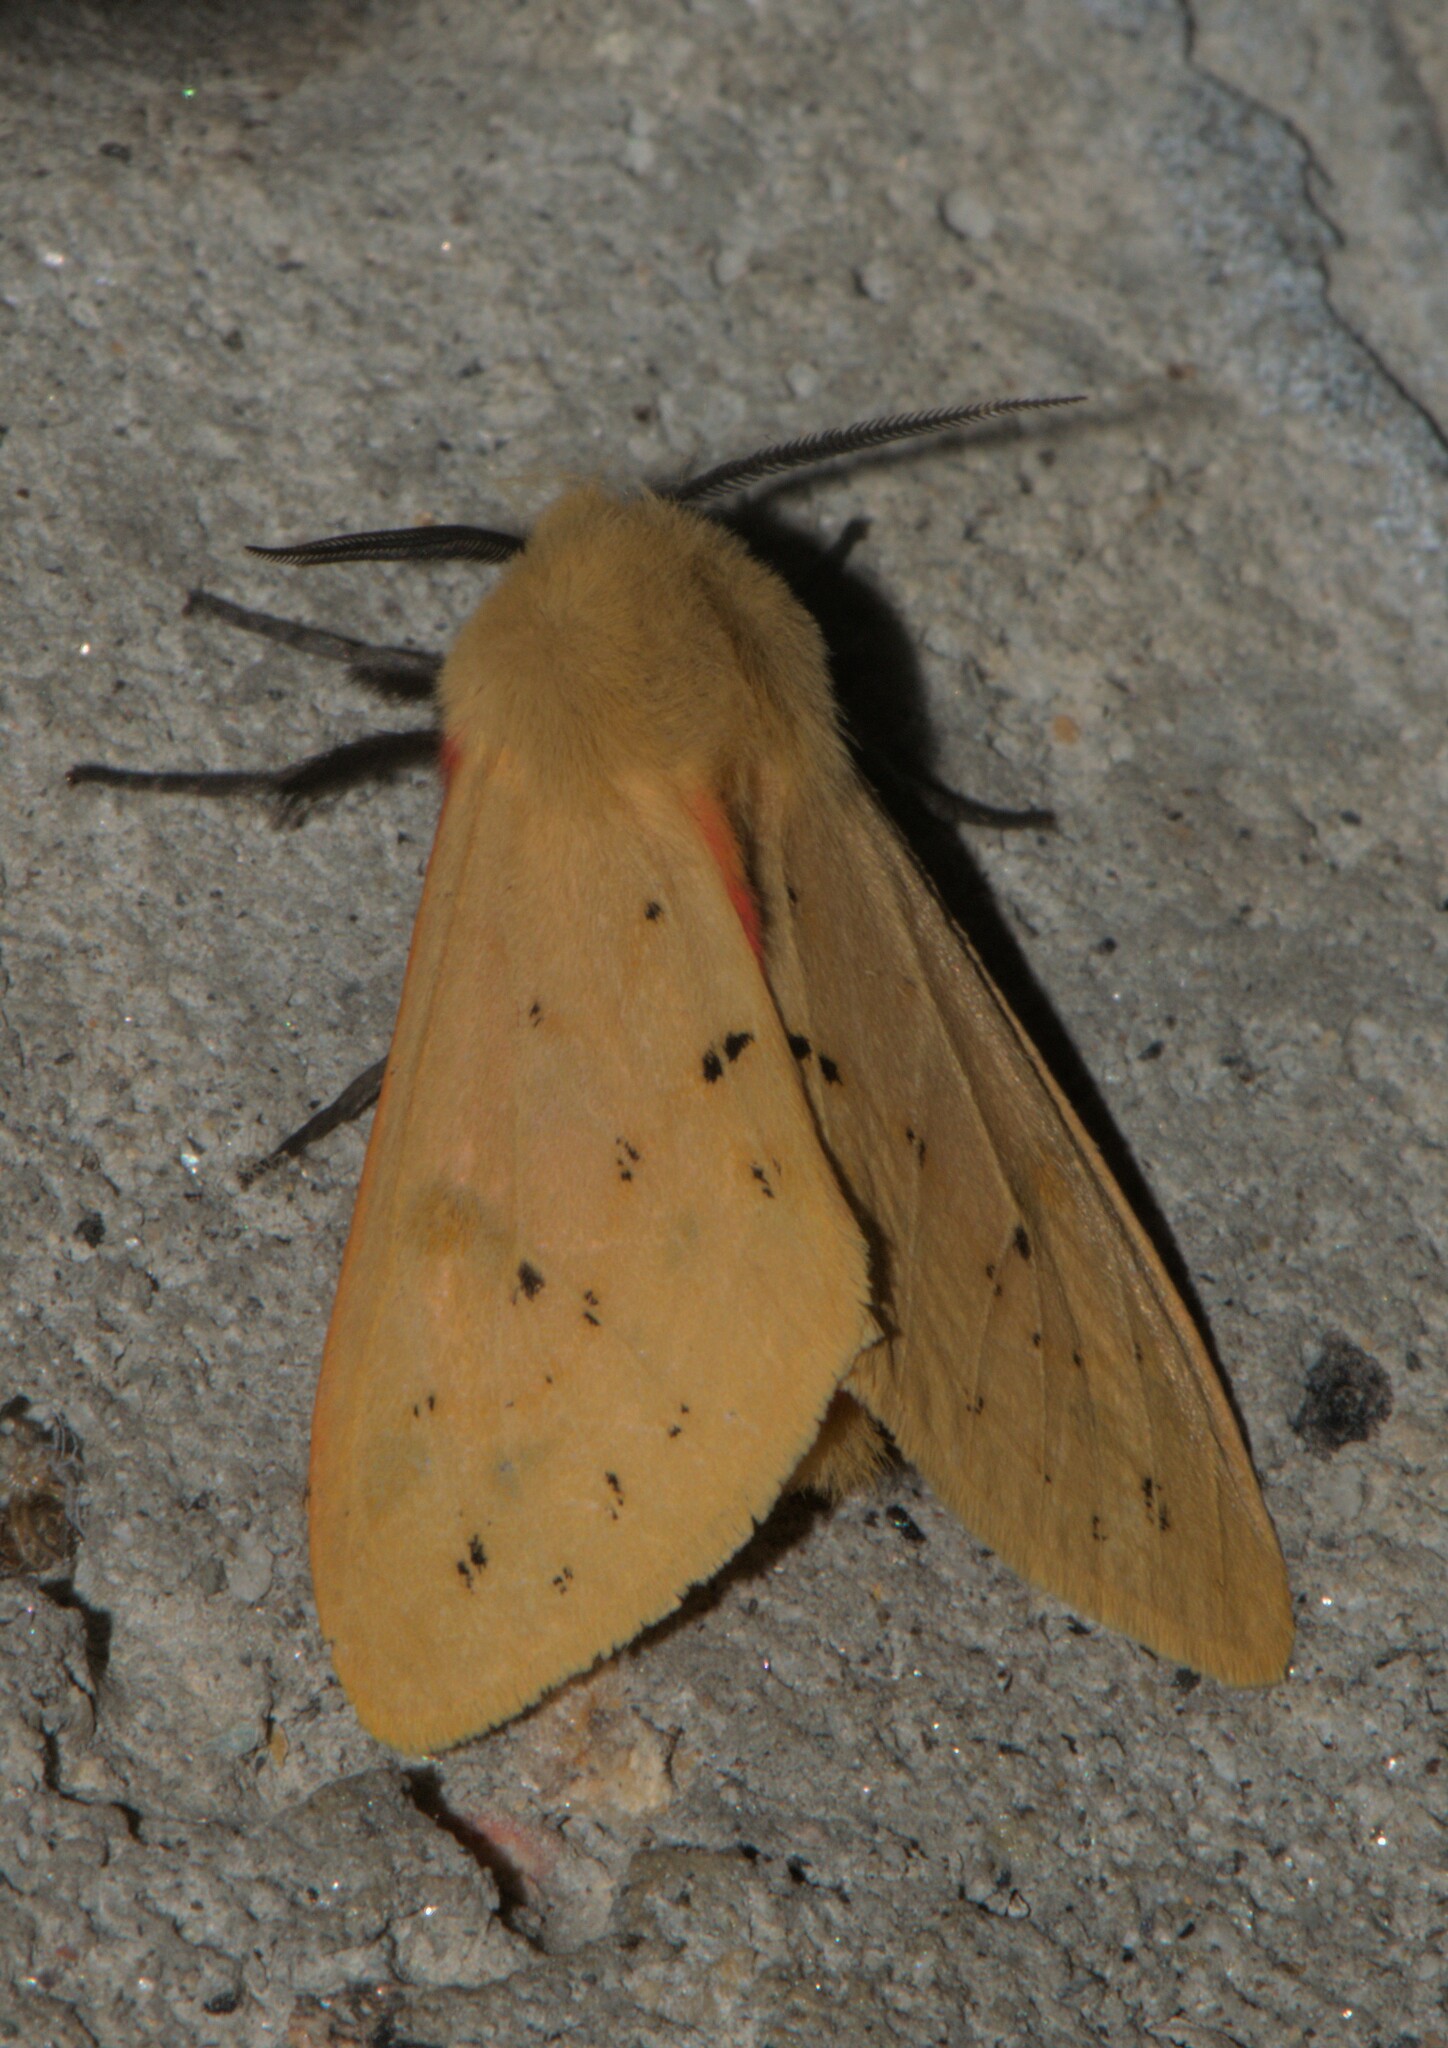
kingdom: Animalia
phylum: Arthropoda
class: Insecta
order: Lepidoptera
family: Erebidae
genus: Spilarctia
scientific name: Spilarctia obliqua
